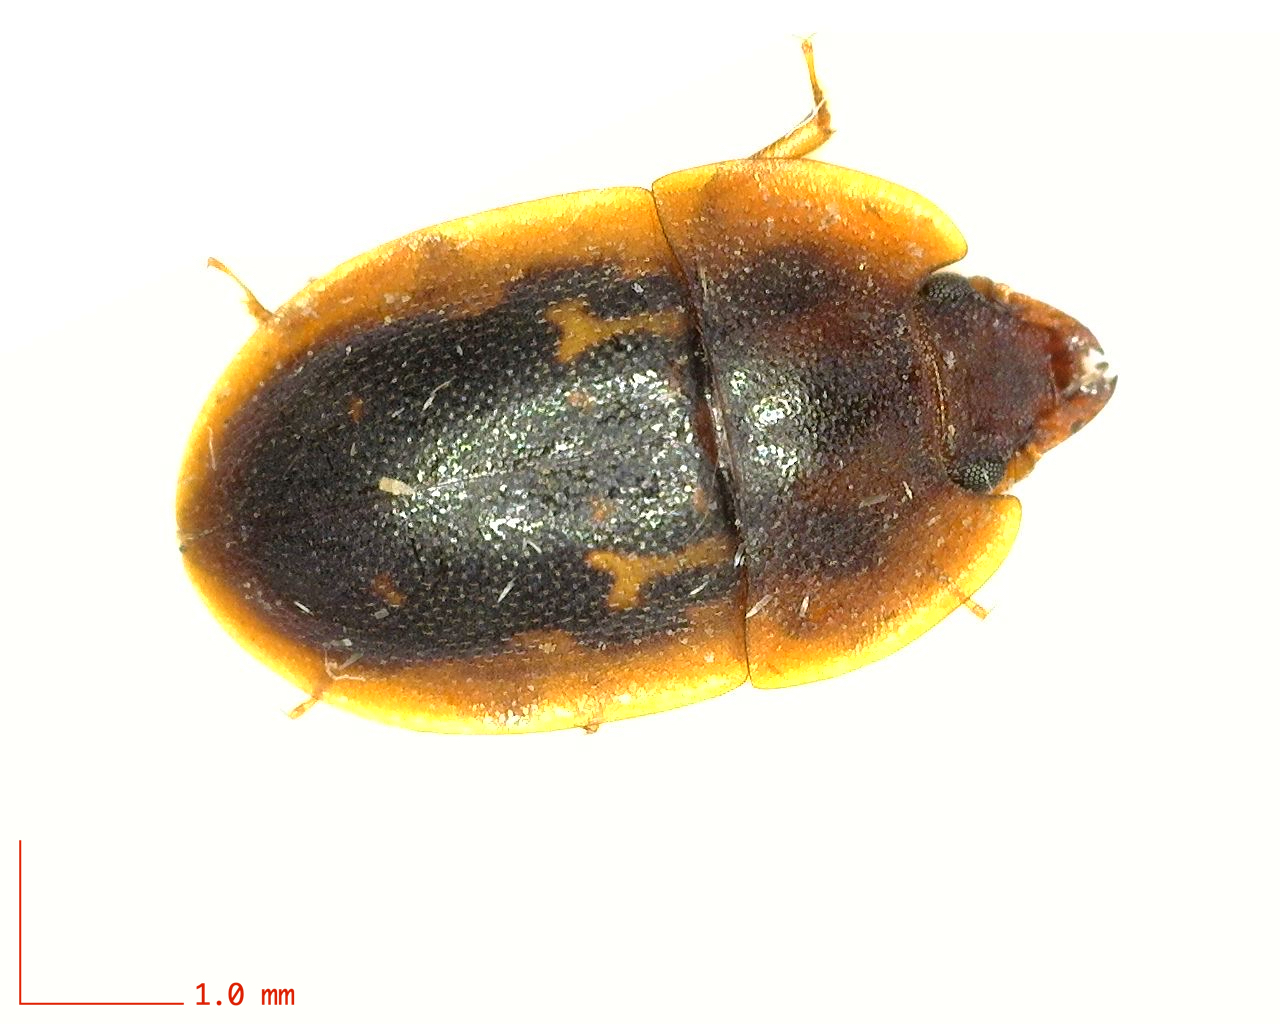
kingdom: Animalia
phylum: Arthropoda
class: Insecta
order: Coleoptera
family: Nitidulidae
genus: Prometopia
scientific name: Prometopia sexmaculata
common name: Six-spotted sap-feeding beetle
